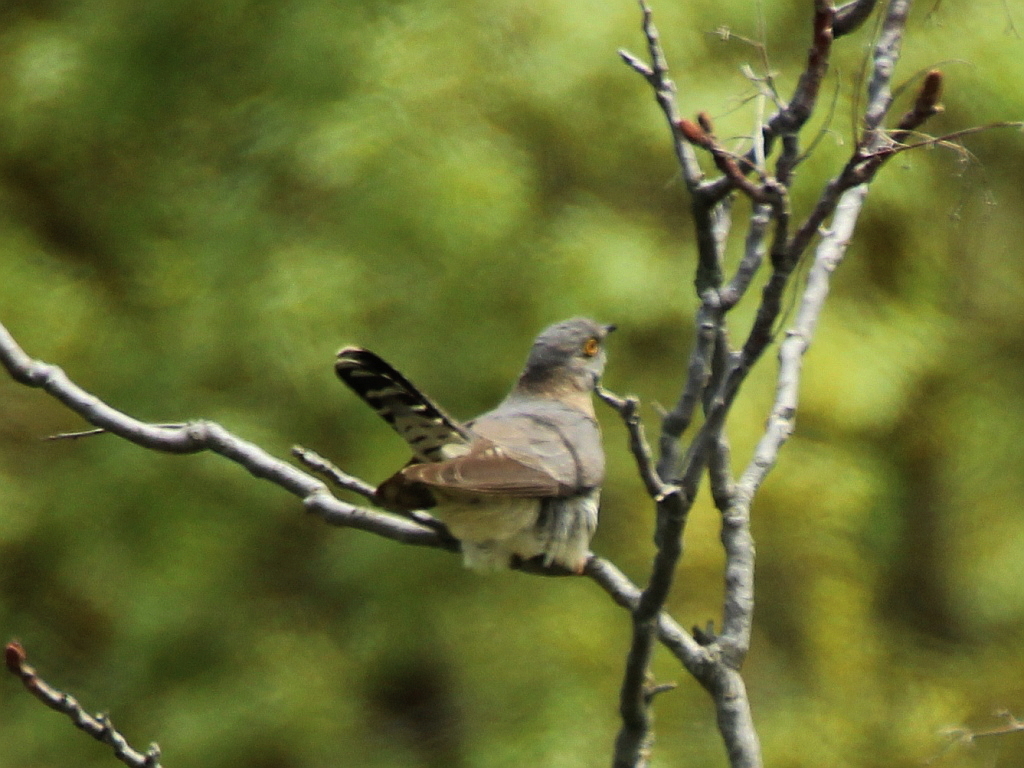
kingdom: Animalia
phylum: Chordata
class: Aves
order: Cuculiformes
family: Cuculidae
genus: Cuculus
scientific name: Cuculus canorus
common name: Common cuckoo
